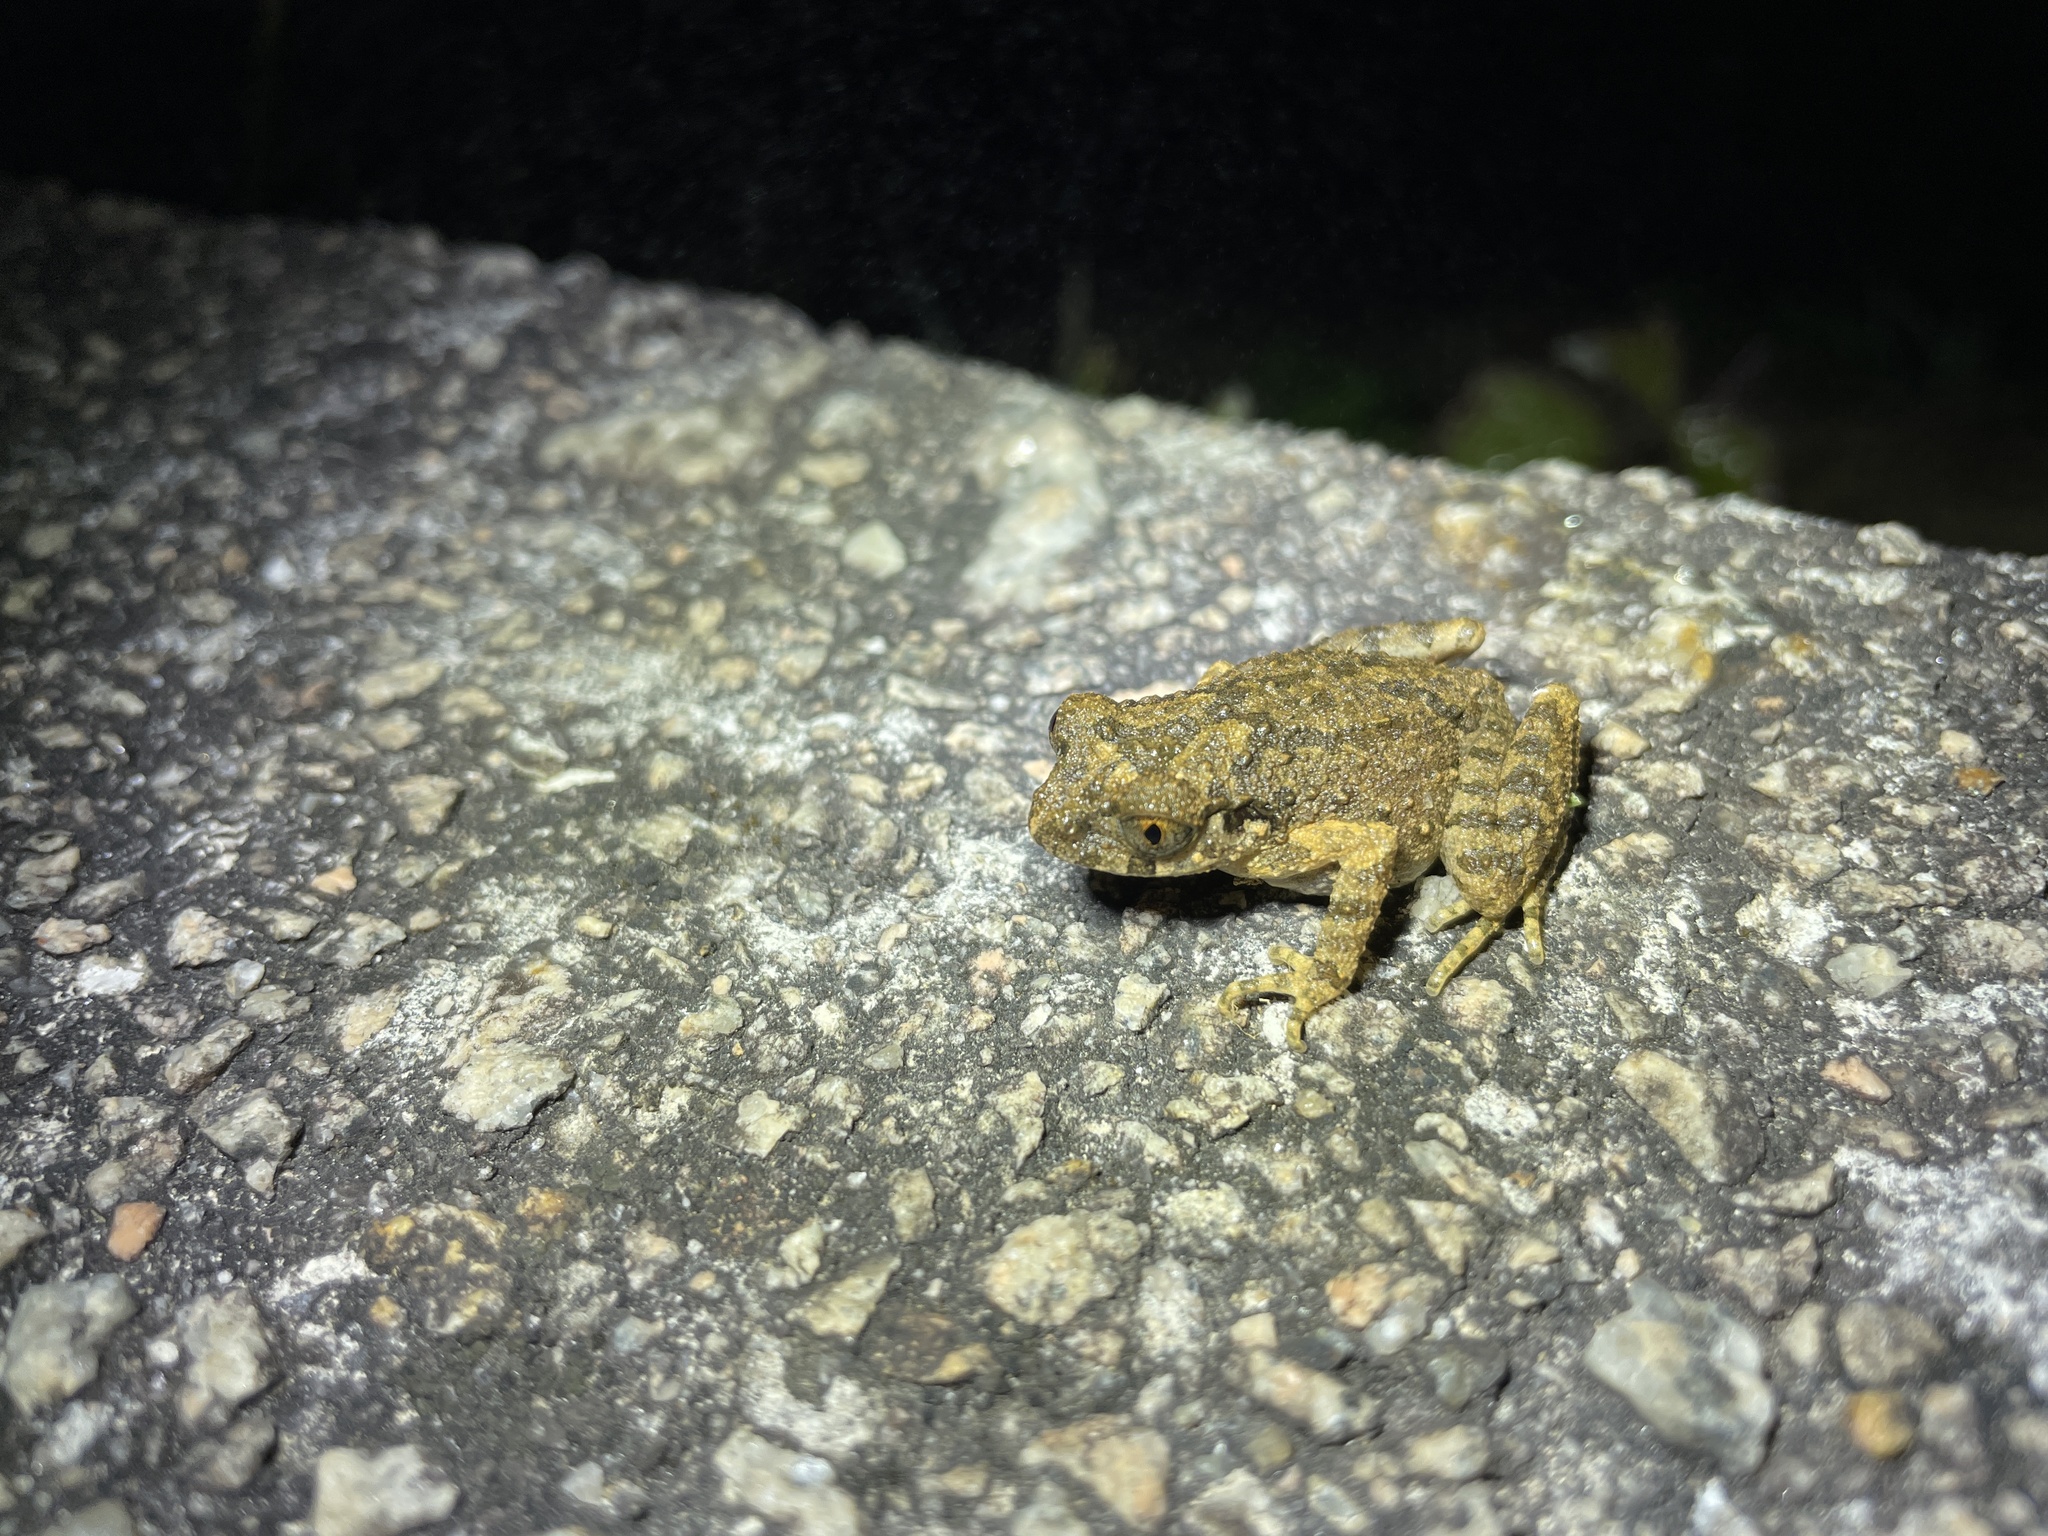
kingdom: Animalia
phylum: Chordata
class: Amphibia
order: Anura
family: Megophryidae
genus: Leptobrachella
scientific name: Leptobrachella laui
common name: Lau's leaf little toad
